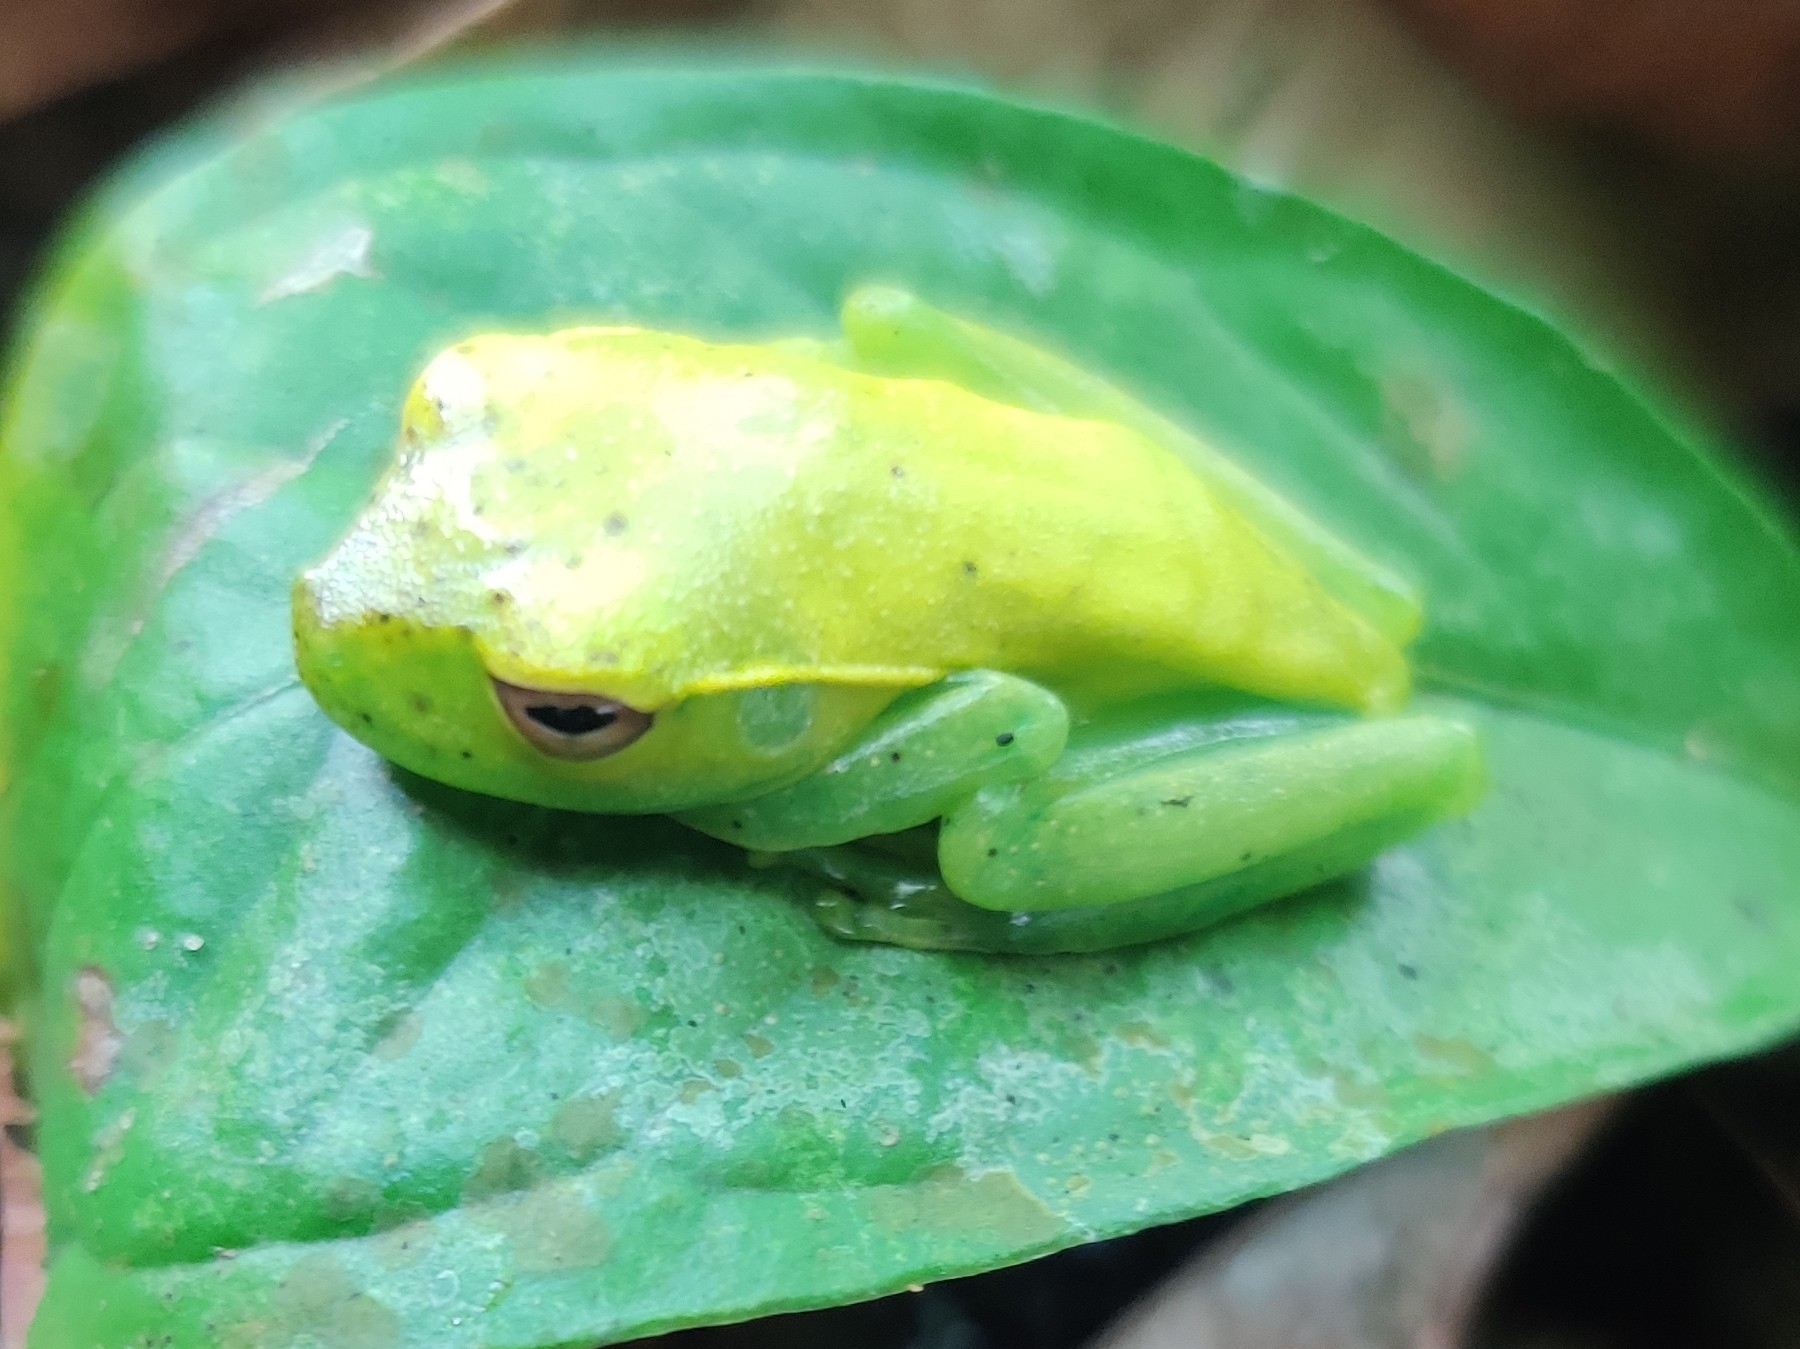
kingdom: Animalia
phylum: Chordata
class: Amphibia
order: Anura
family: Hylidae
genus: Boana
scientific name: Boana albomarginata
